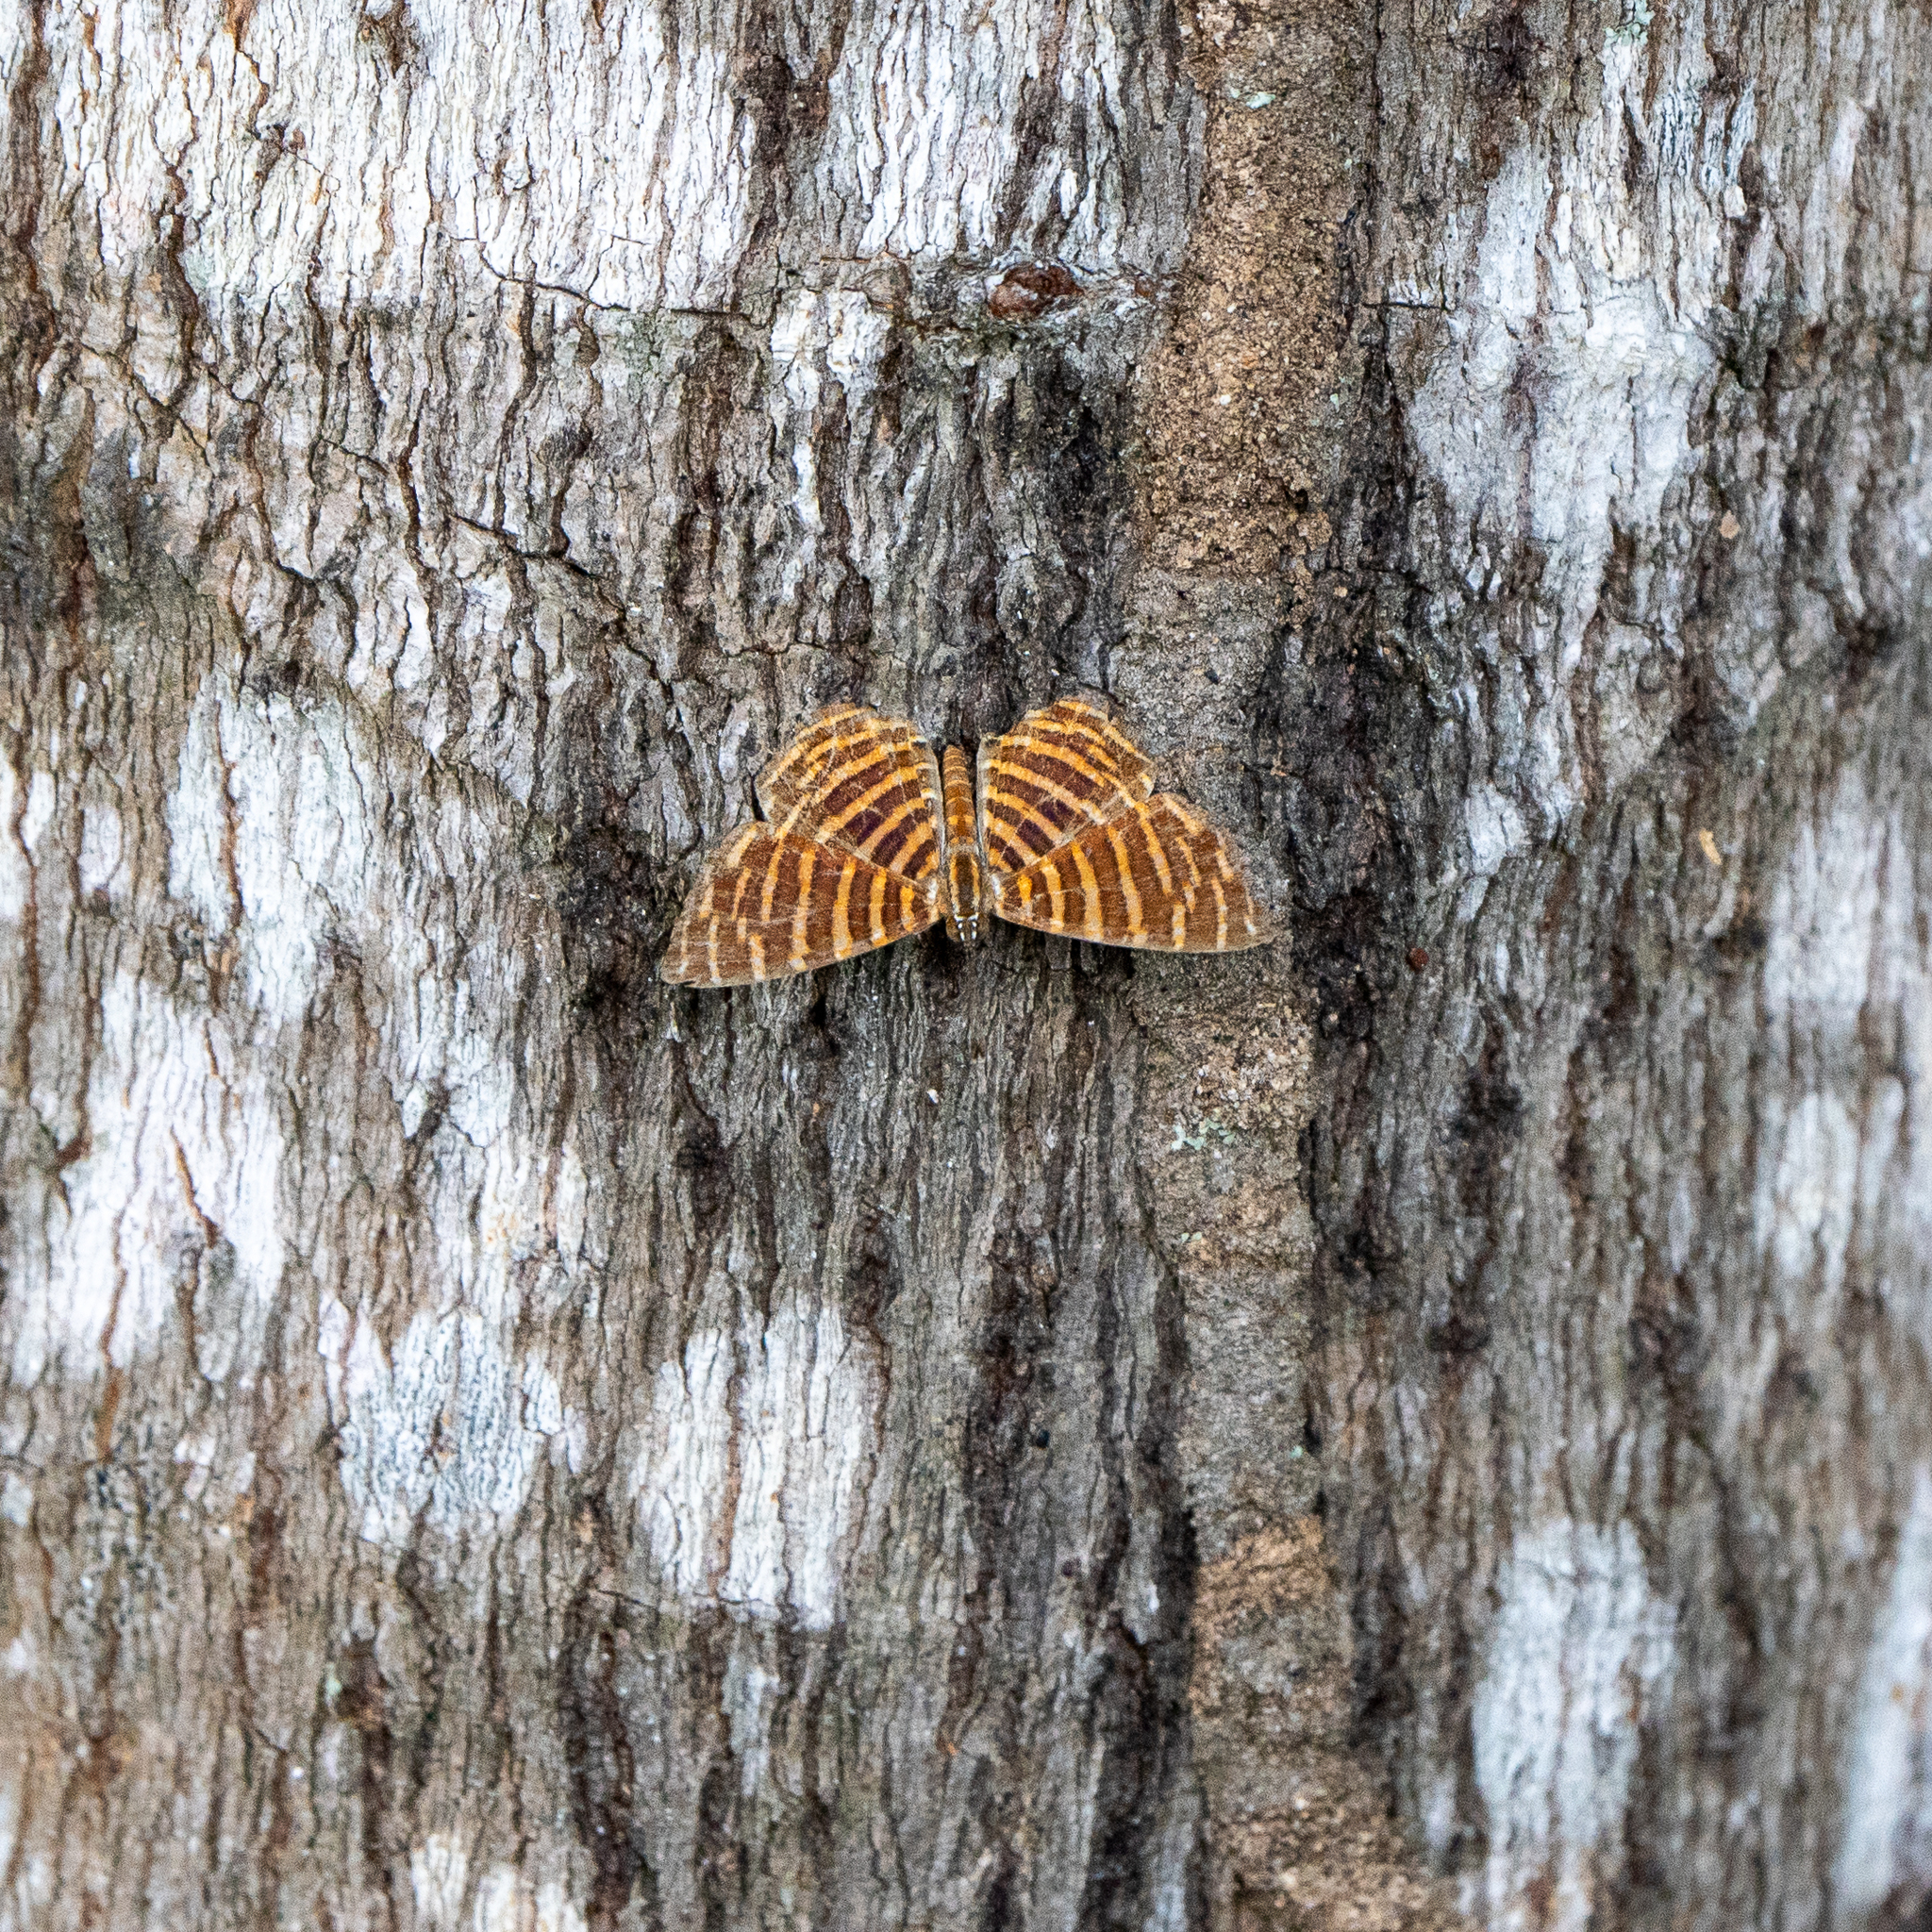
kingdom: Animalia
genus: Hyphilaria
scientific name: Hyphilaria thasus
